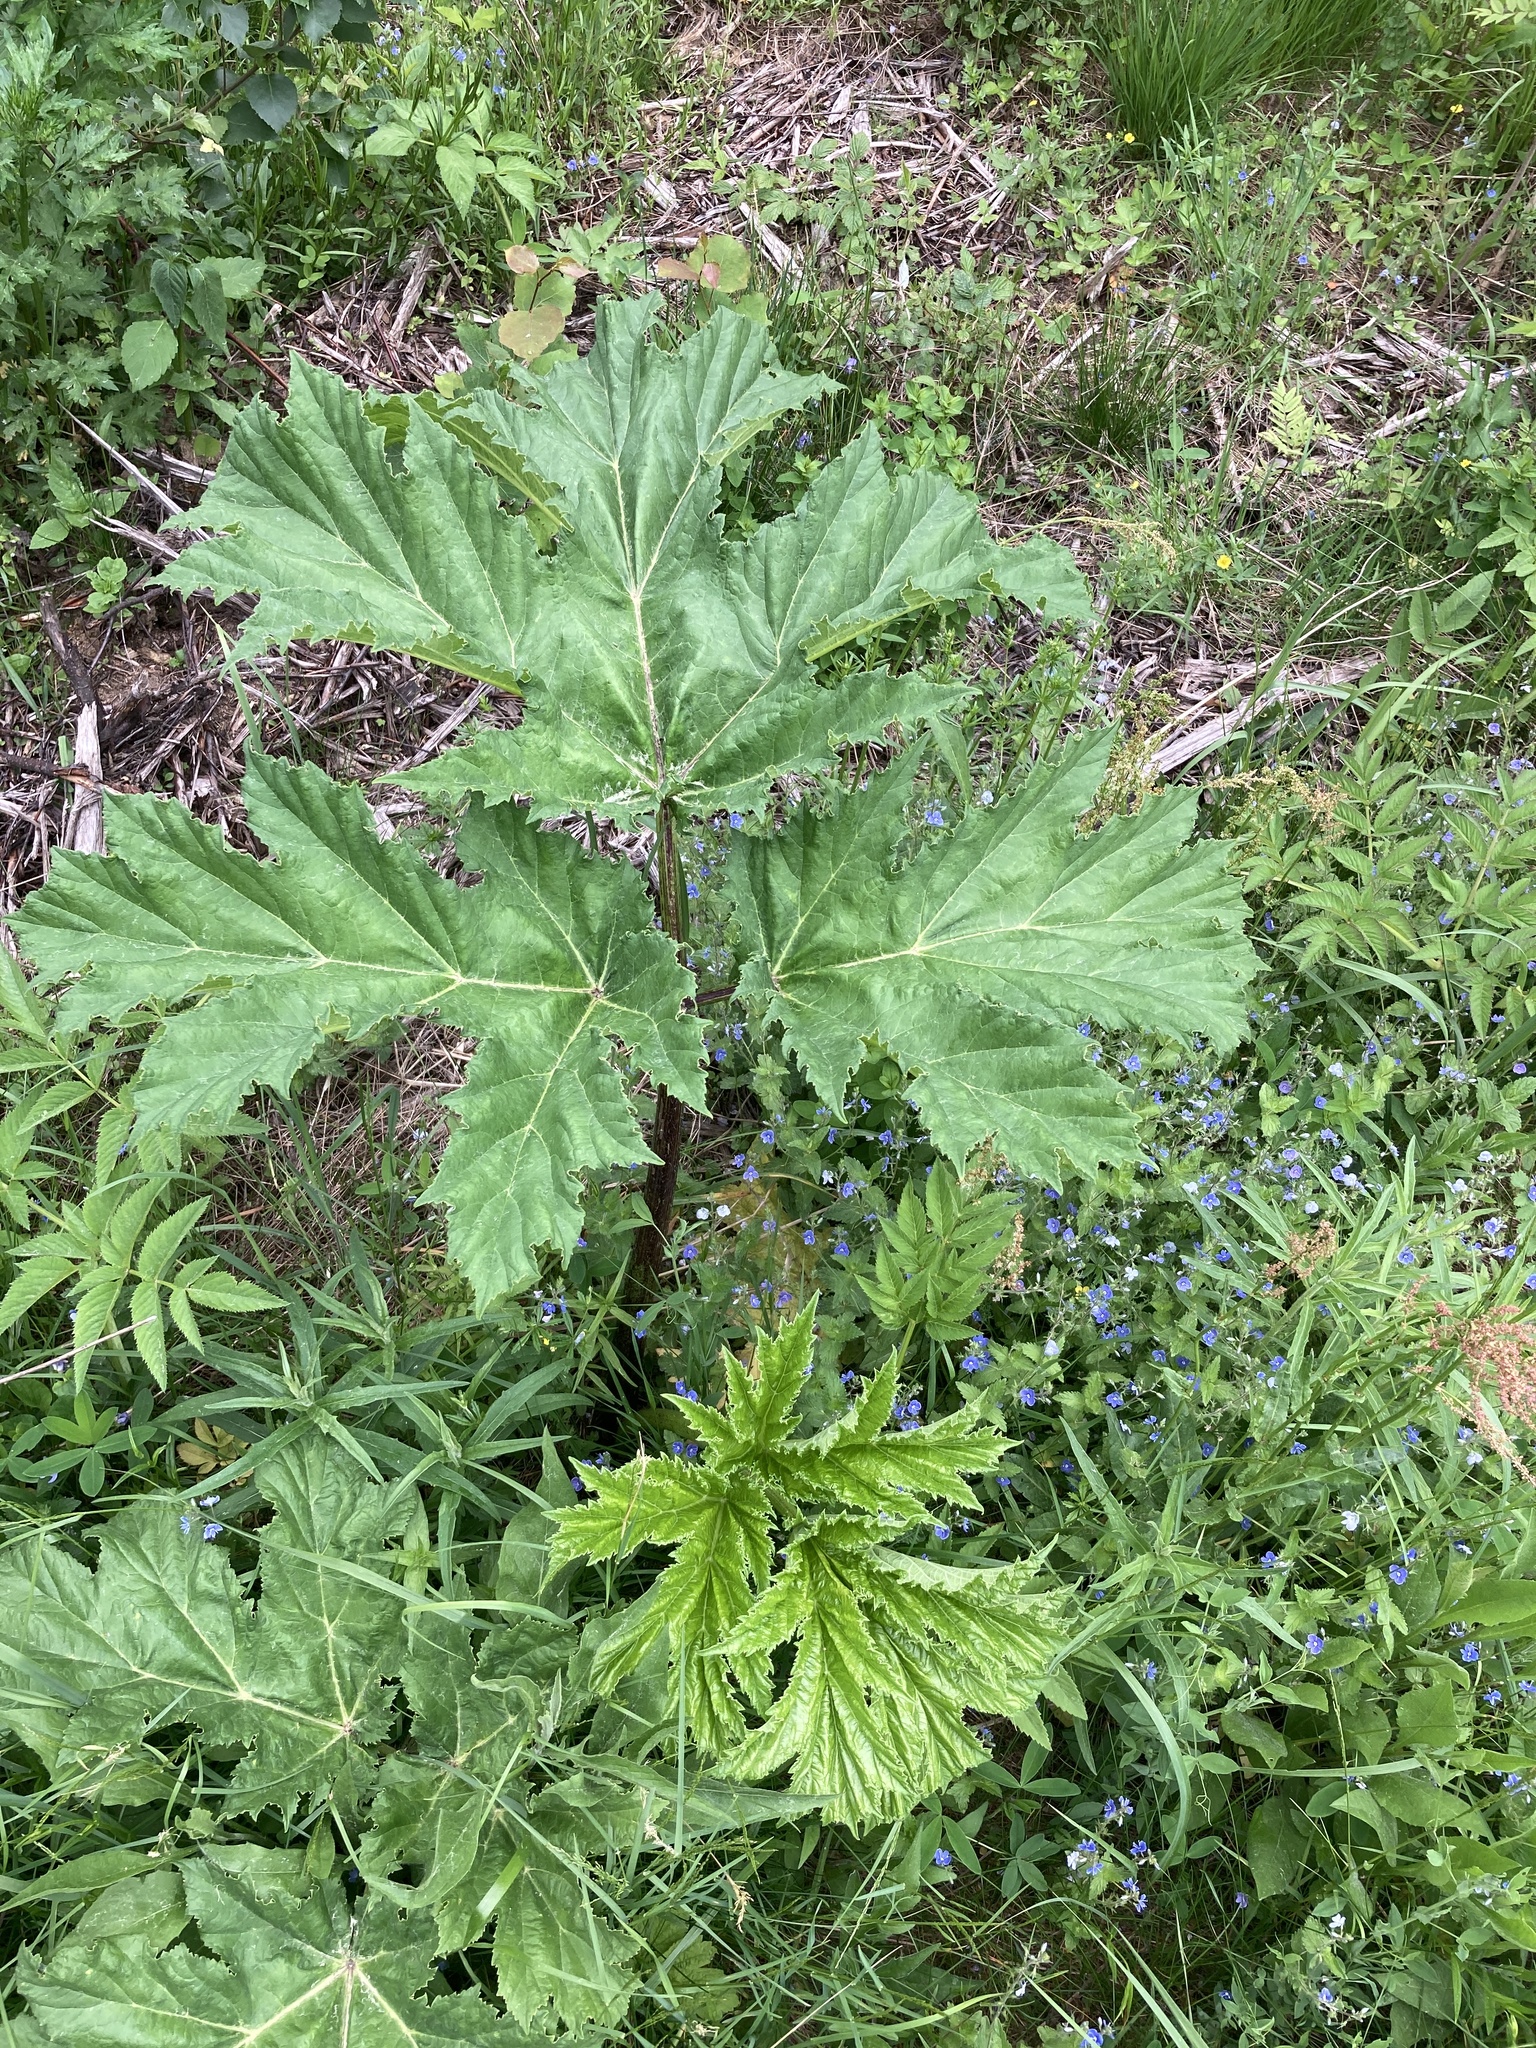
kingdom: Plantae
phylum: Tracheophyta
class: Magnoliopsida
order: Apiales
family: Apiaceae
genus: Heracleum
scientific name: Heracleum sosnowskyi
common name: Sosnowsky's hogweed
